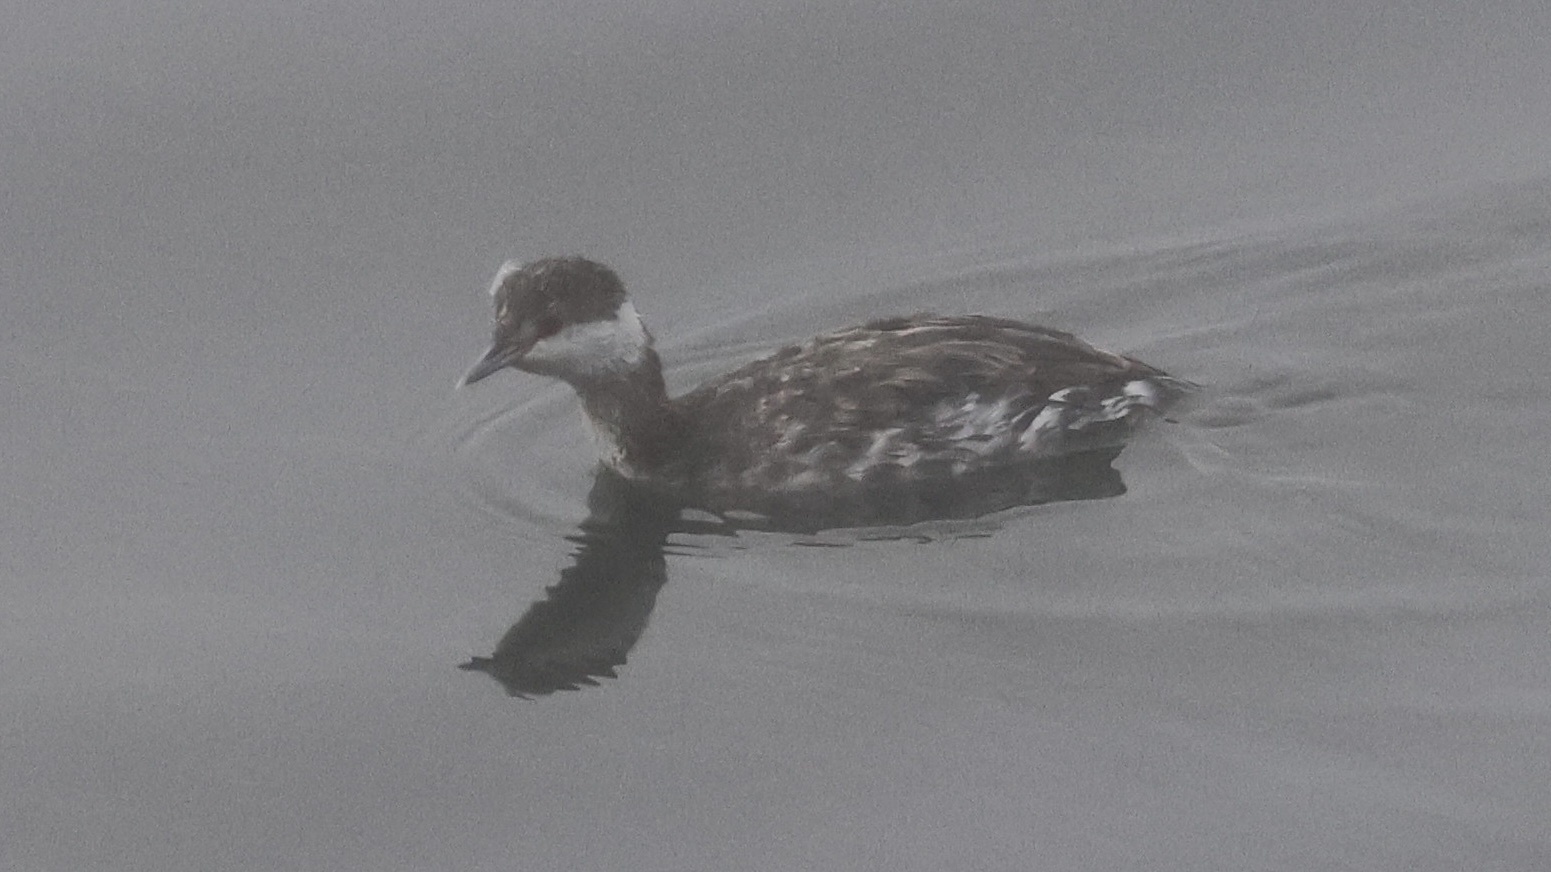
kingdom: Animalia
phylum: Chordata
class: Aves
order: Podicipediformes
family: Podicipedidae
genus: Podiceps
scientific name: Podiceps auritus
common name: Horned grebe
